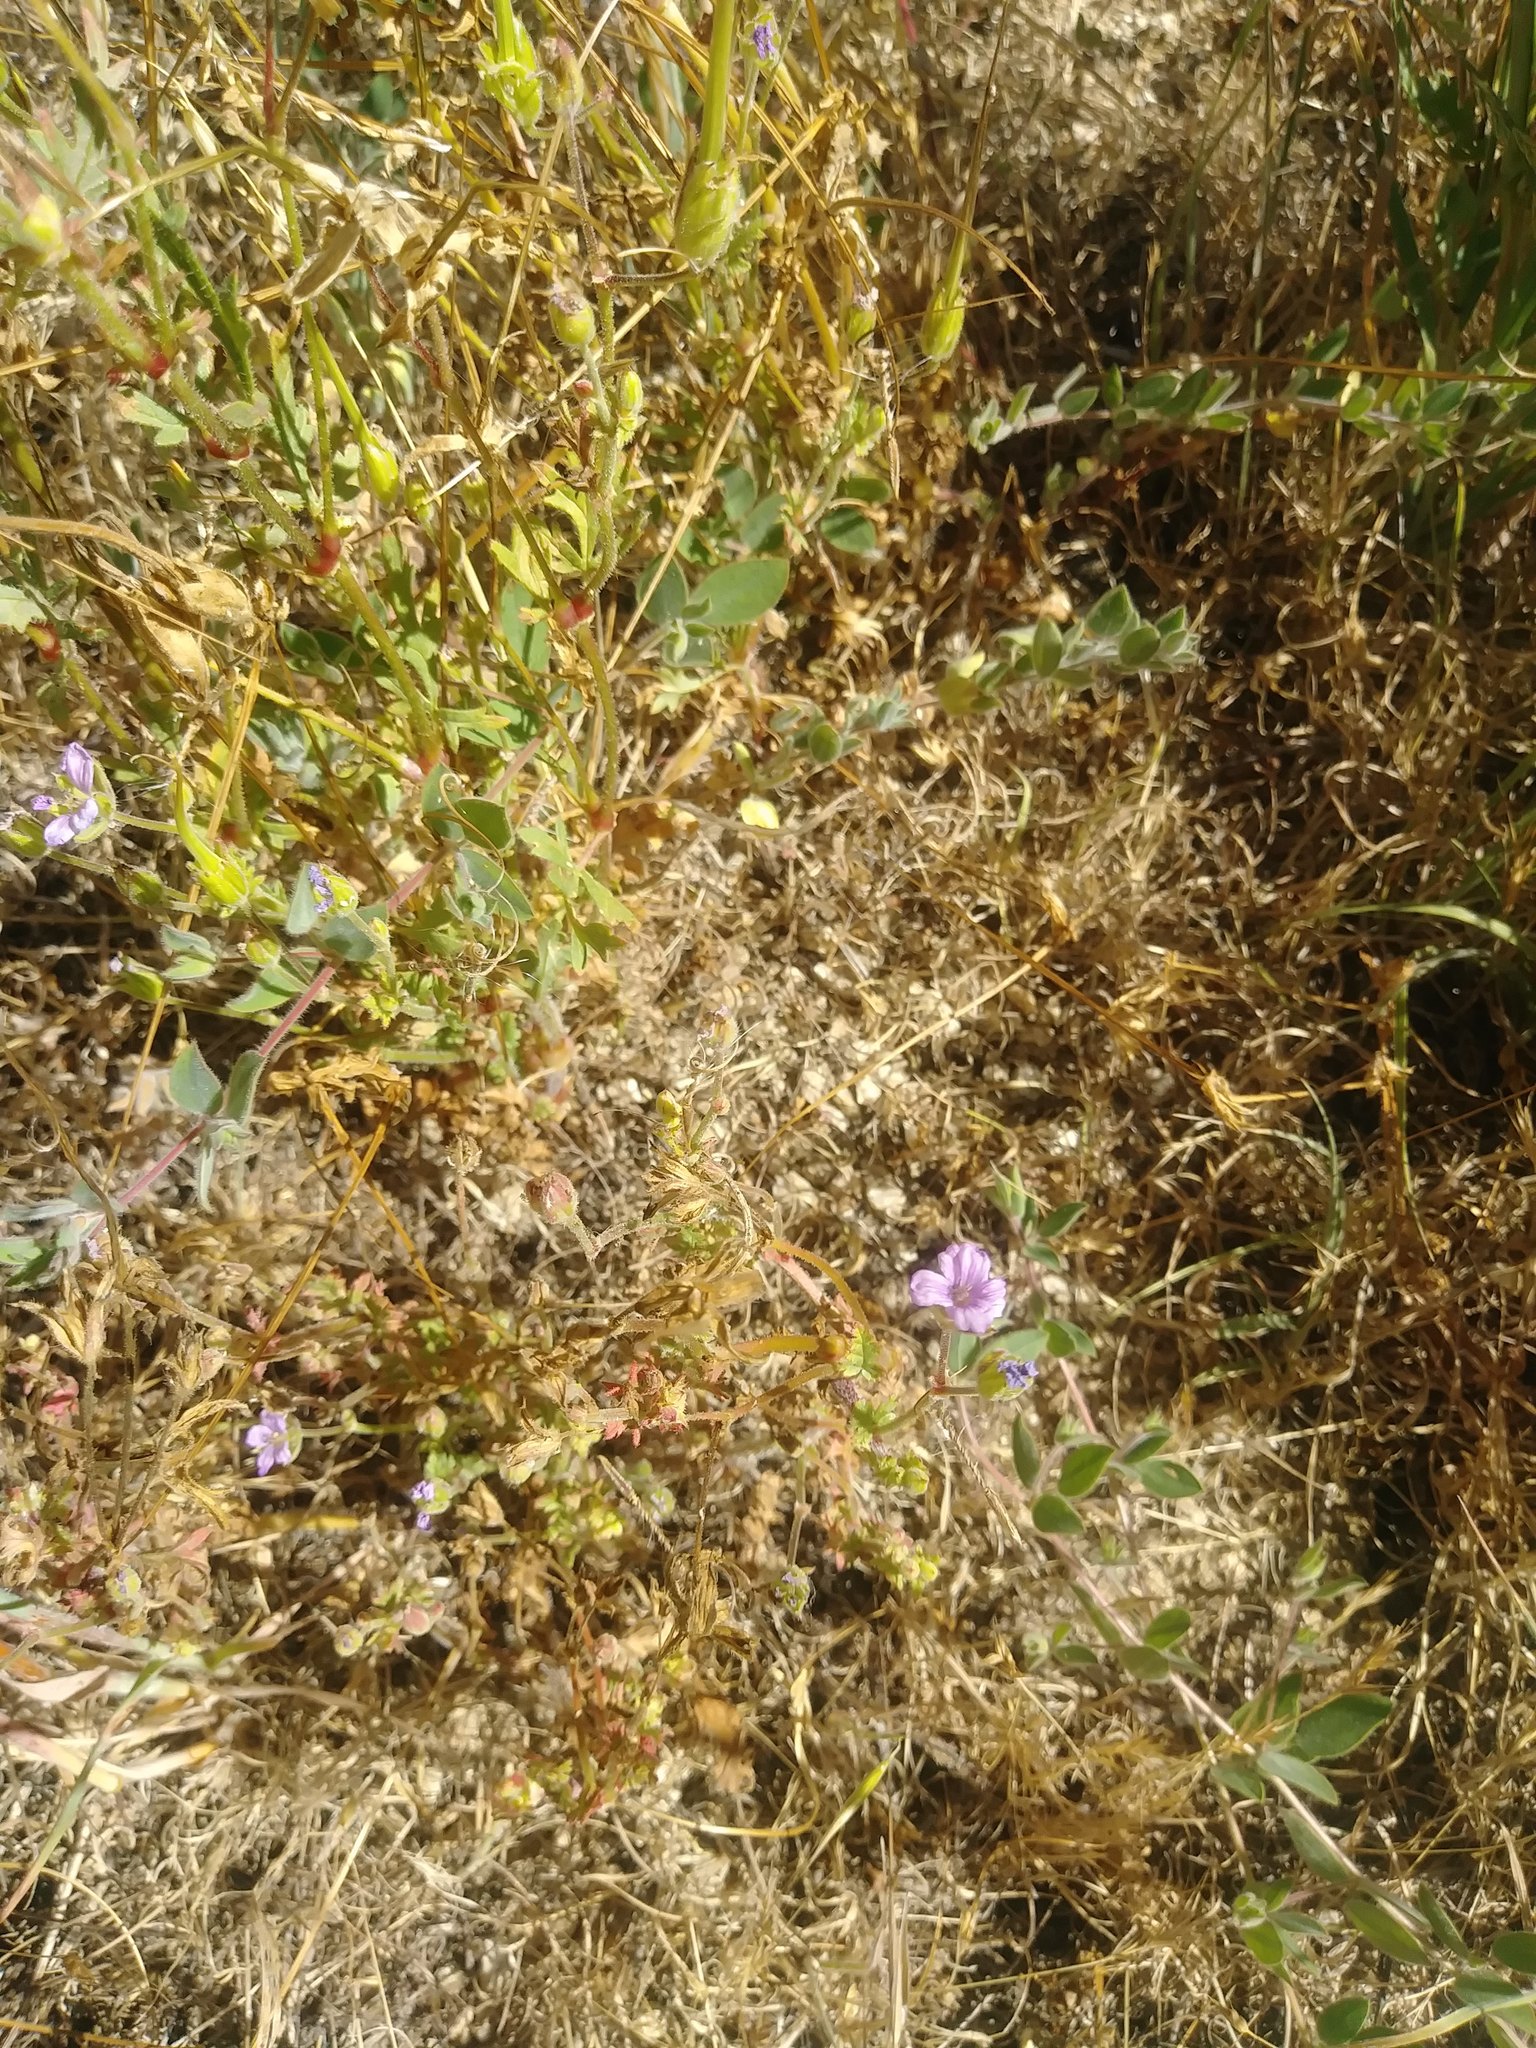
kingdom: Plantae
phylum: Tracheophyta
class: Magnoliopsida
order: Geraniales
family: Geraniaceae
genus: Erodium
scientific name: Erodium botrys
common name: Mediterranean stork's-bill
